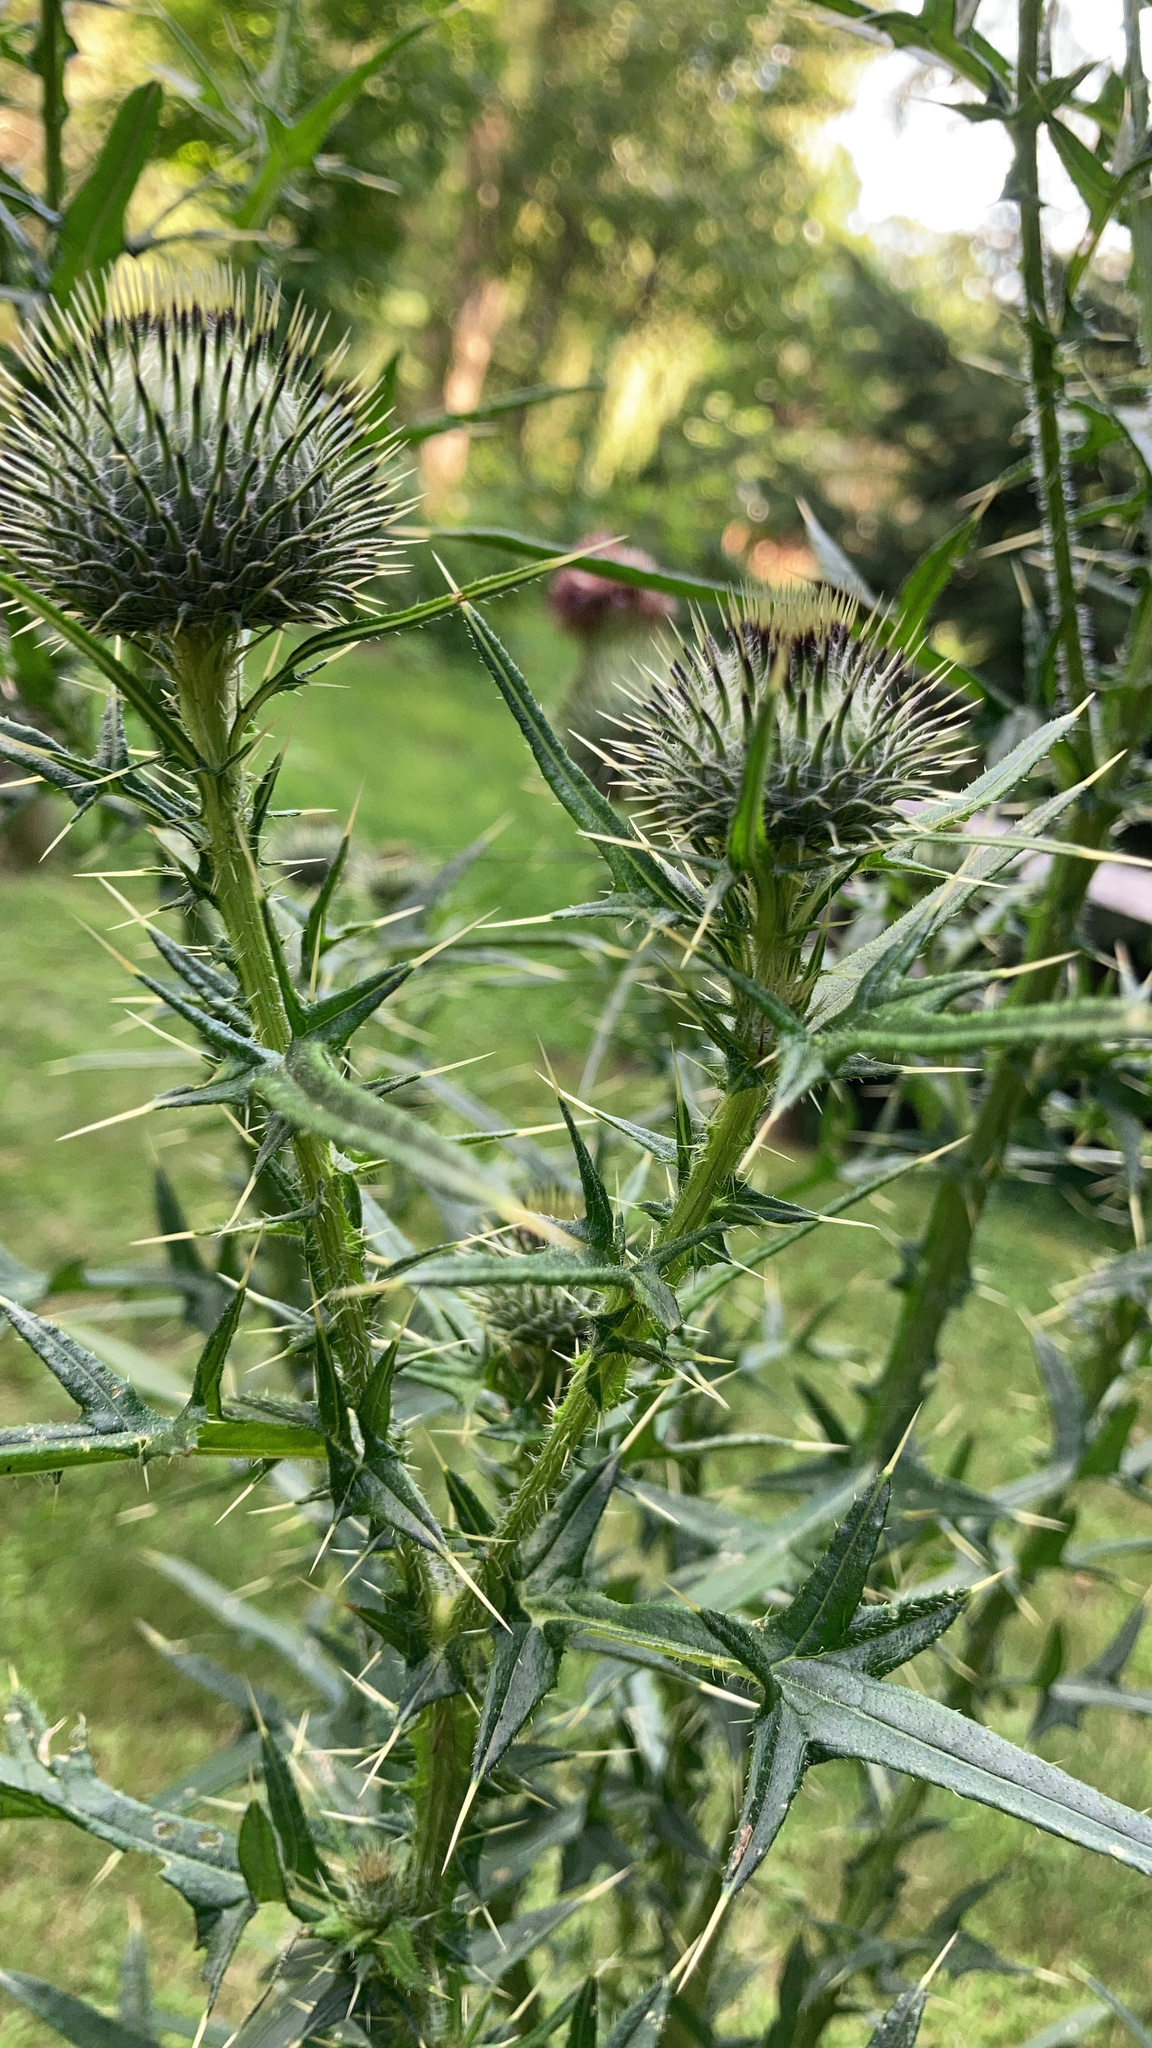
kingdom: Plantae
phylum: Tracheophyta
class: Magnoliopsida
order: Asterales
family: Asteraceae
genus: Cirsium
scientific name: Cirsium vulgare
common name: Bull thistle
